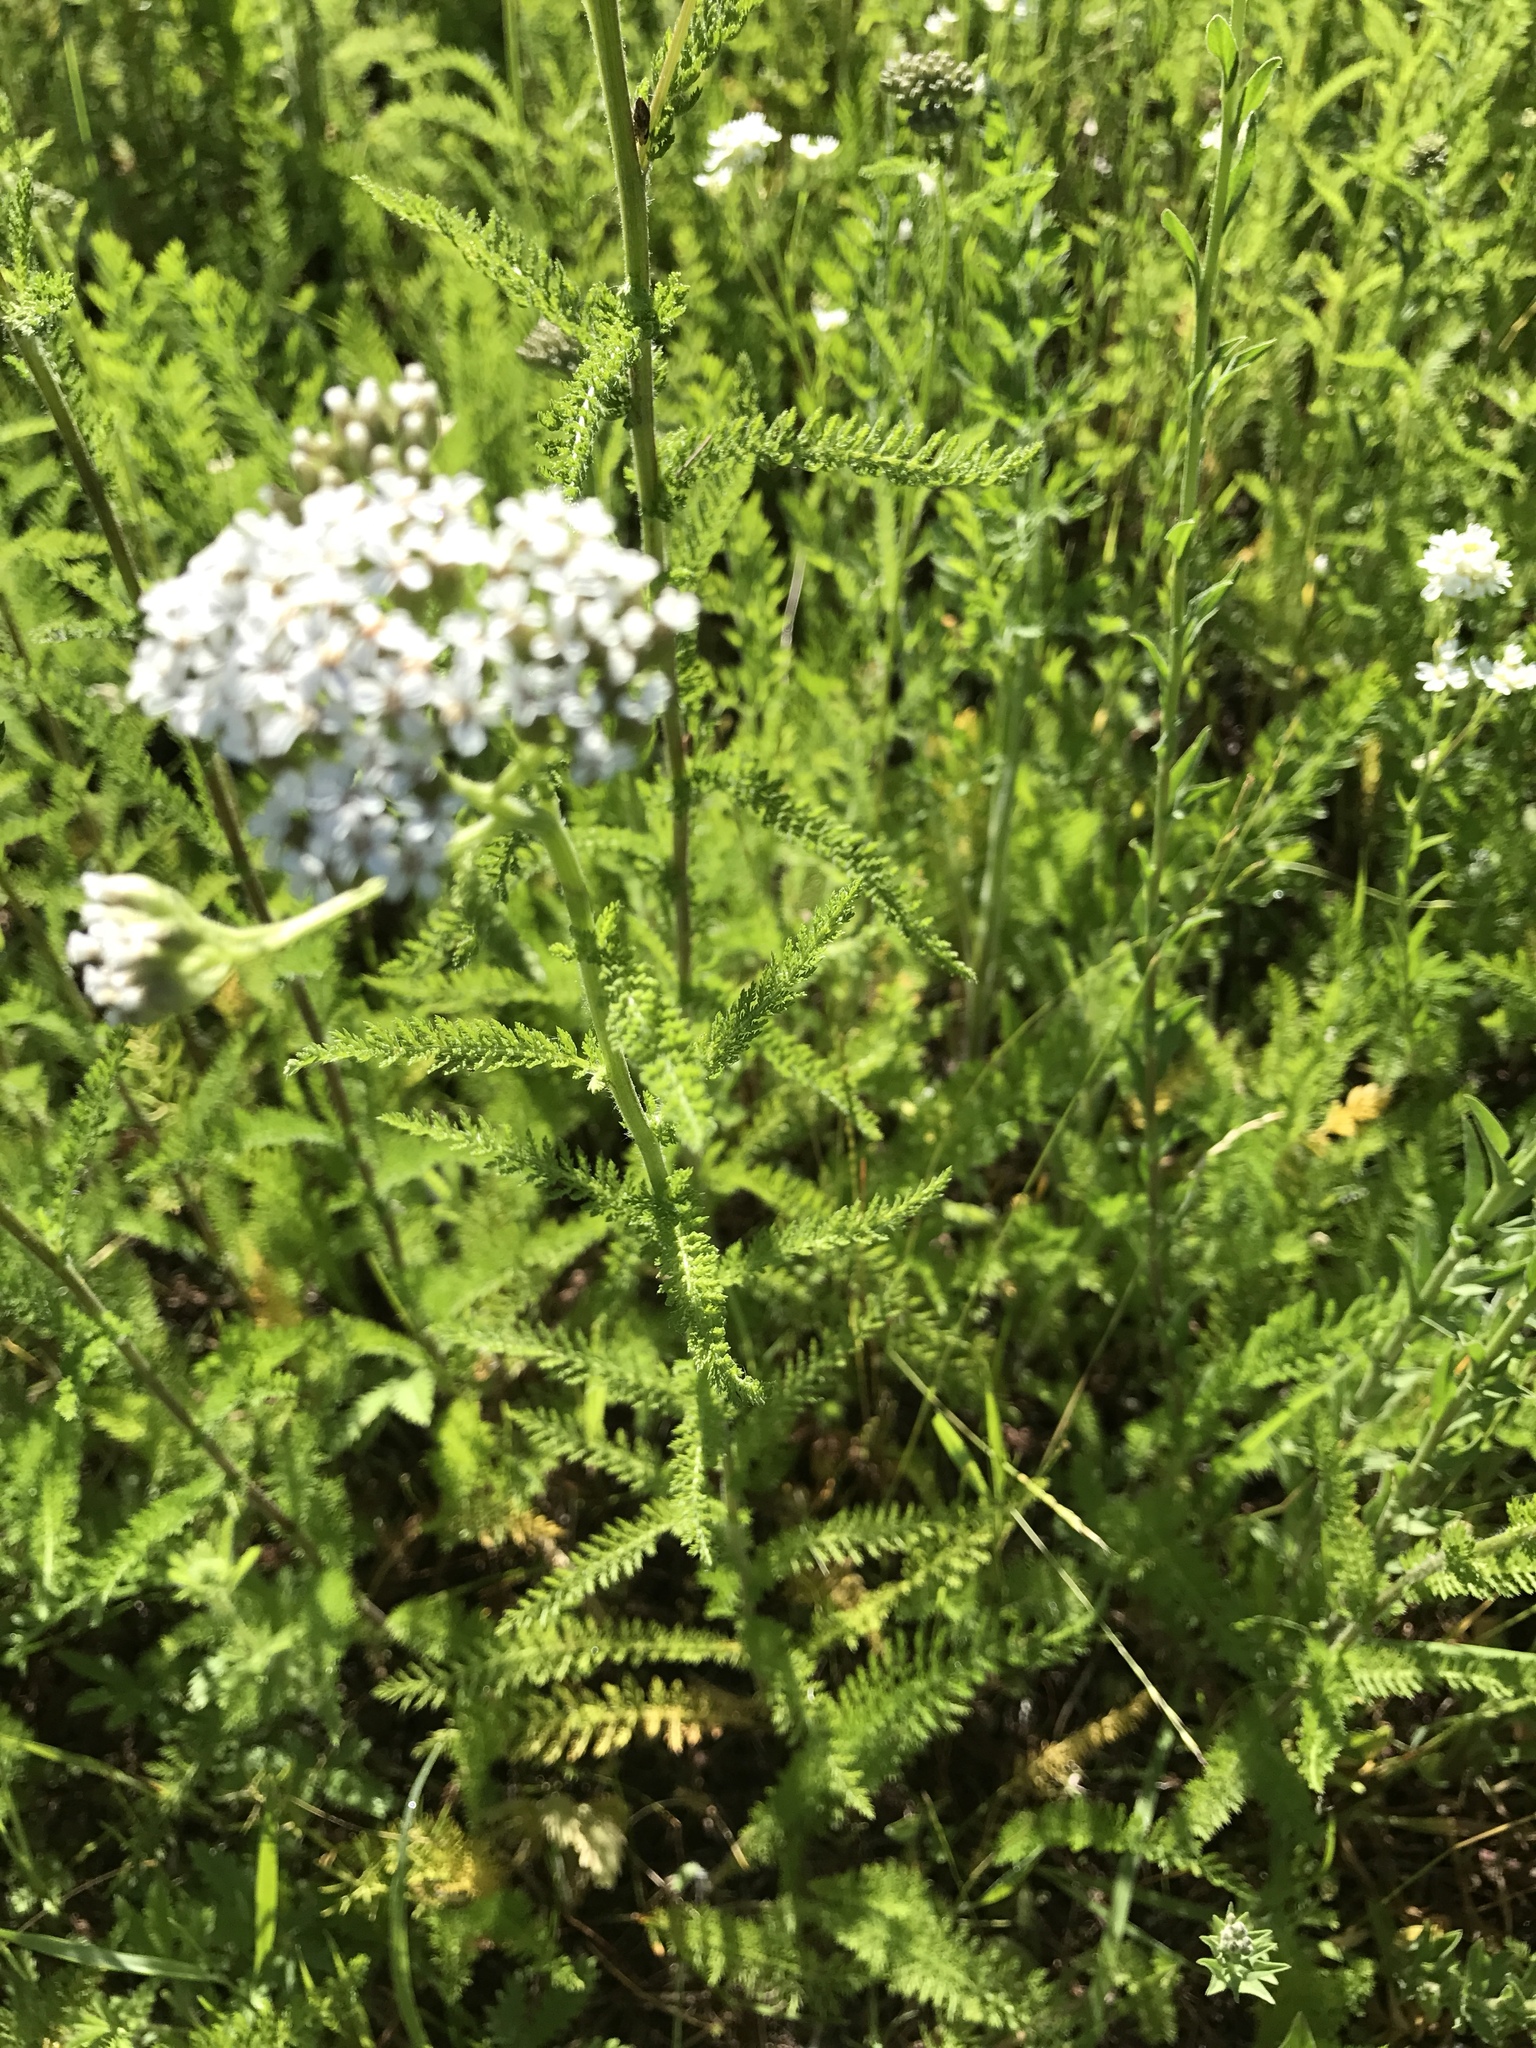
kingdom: Plantae
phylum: Tracheophyta
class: Magnoliopsida
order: Asterales
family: Asteraceae
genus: Achillea
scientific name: Achillea millefolium
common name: Yarrow
